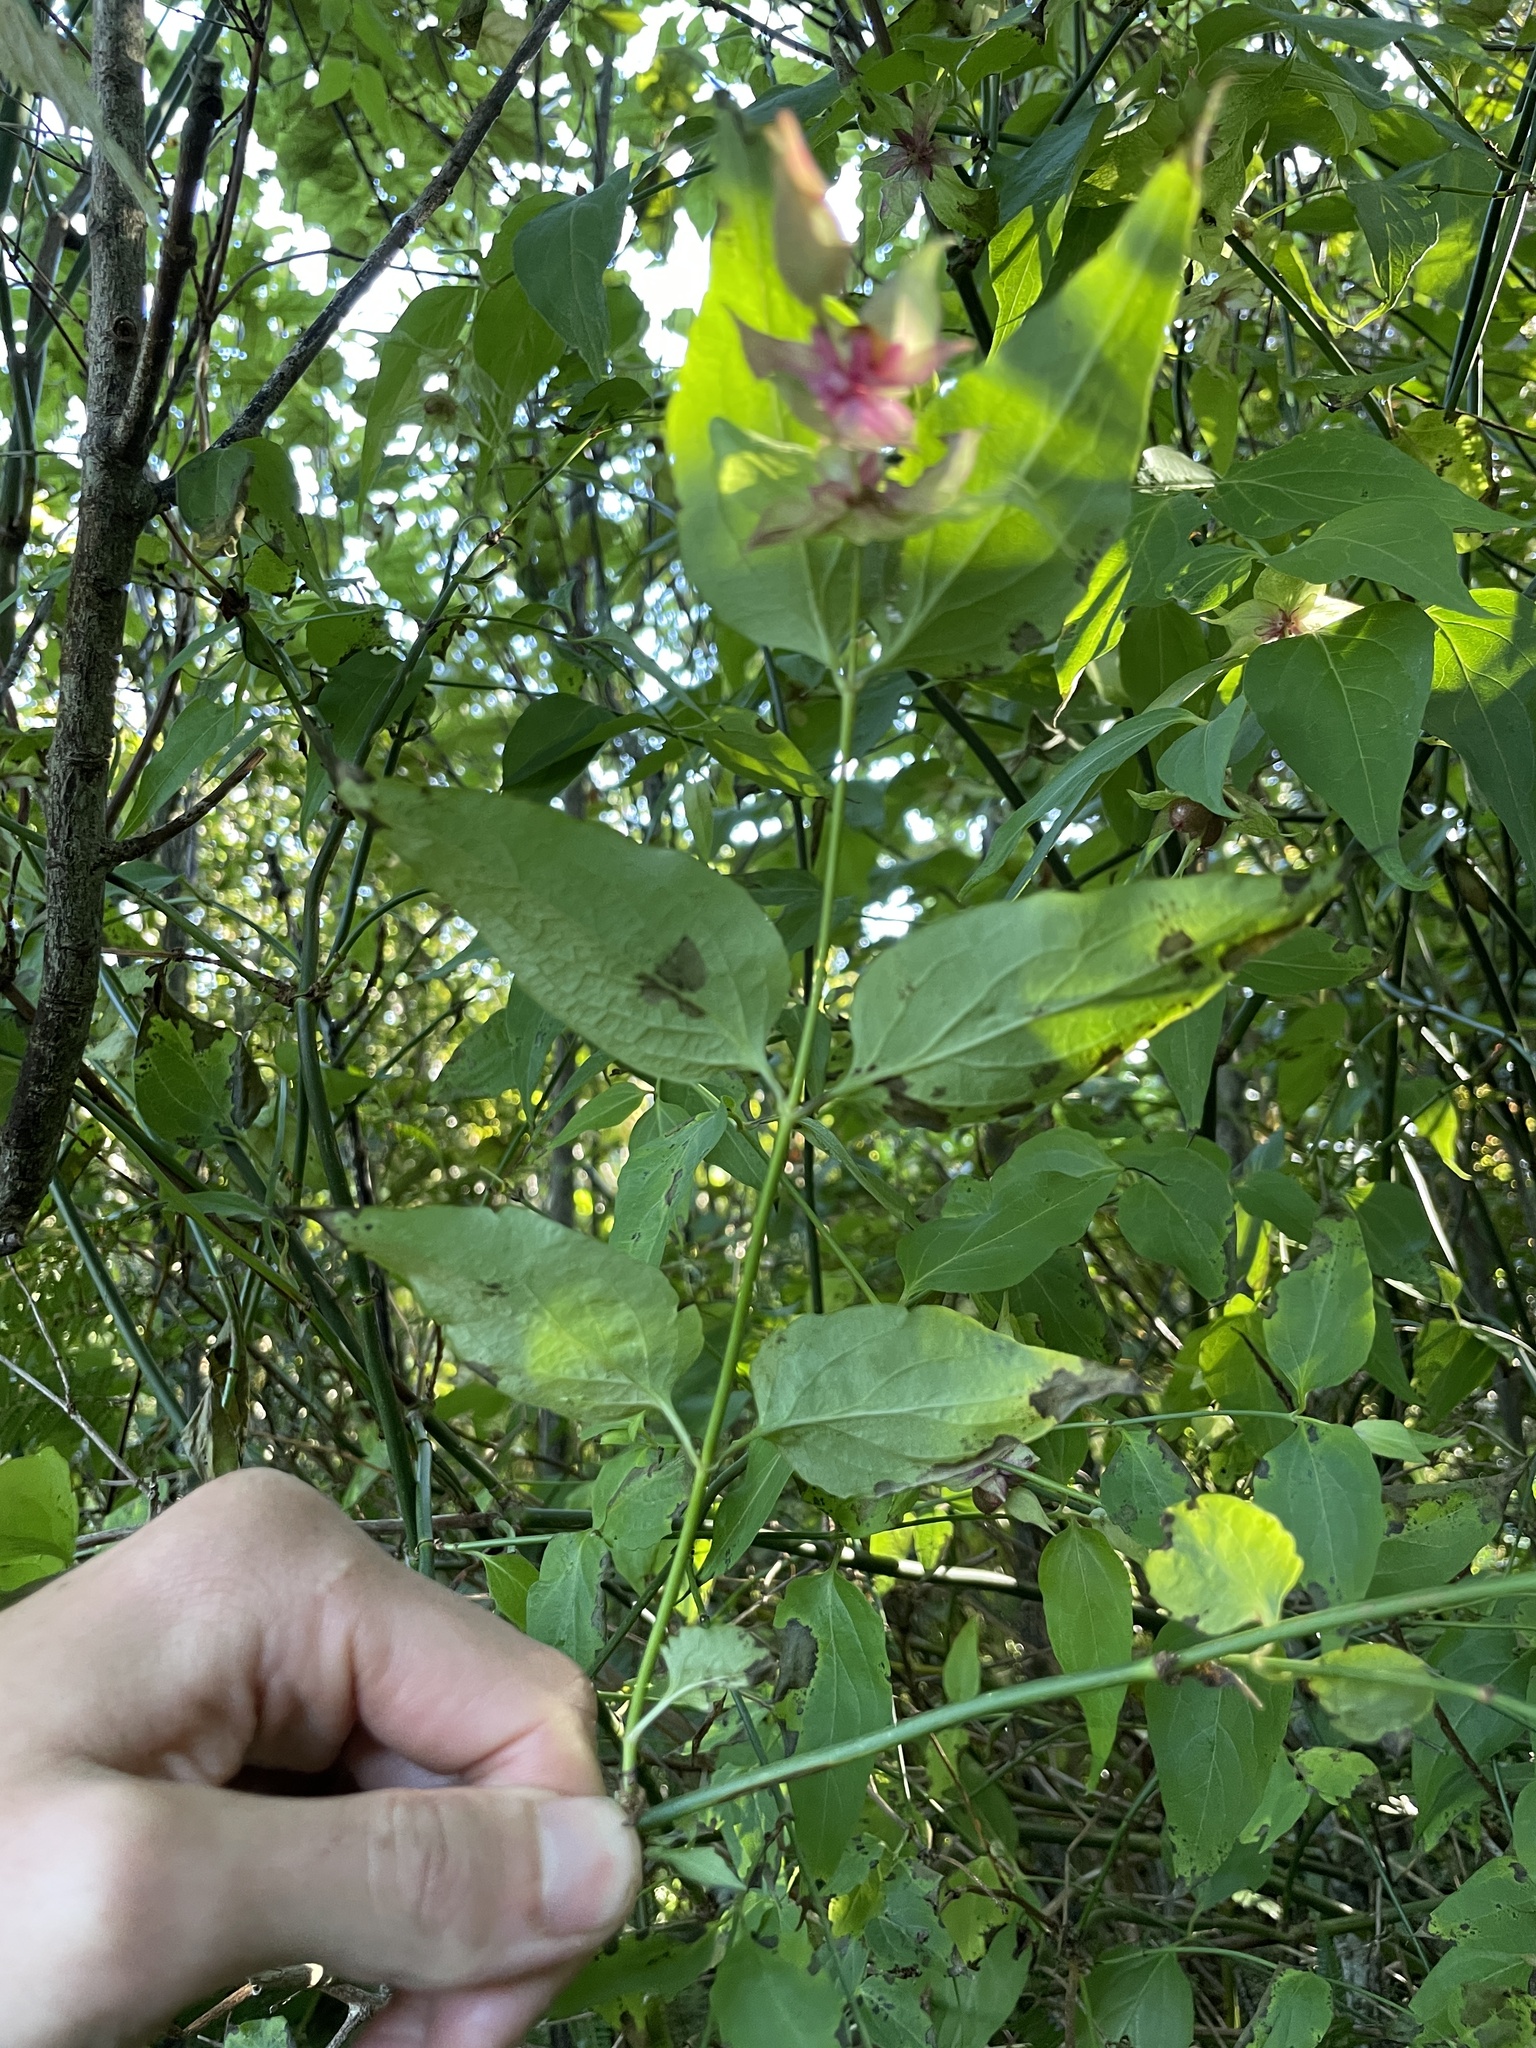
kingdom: Plantae
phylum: Tracheophyta
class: Magnoliopsida
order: Dipsacales
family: Caprifoliaceae
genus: Leycesteria
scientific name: Leycesteria formosa
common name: Himalayan honeysuckle
